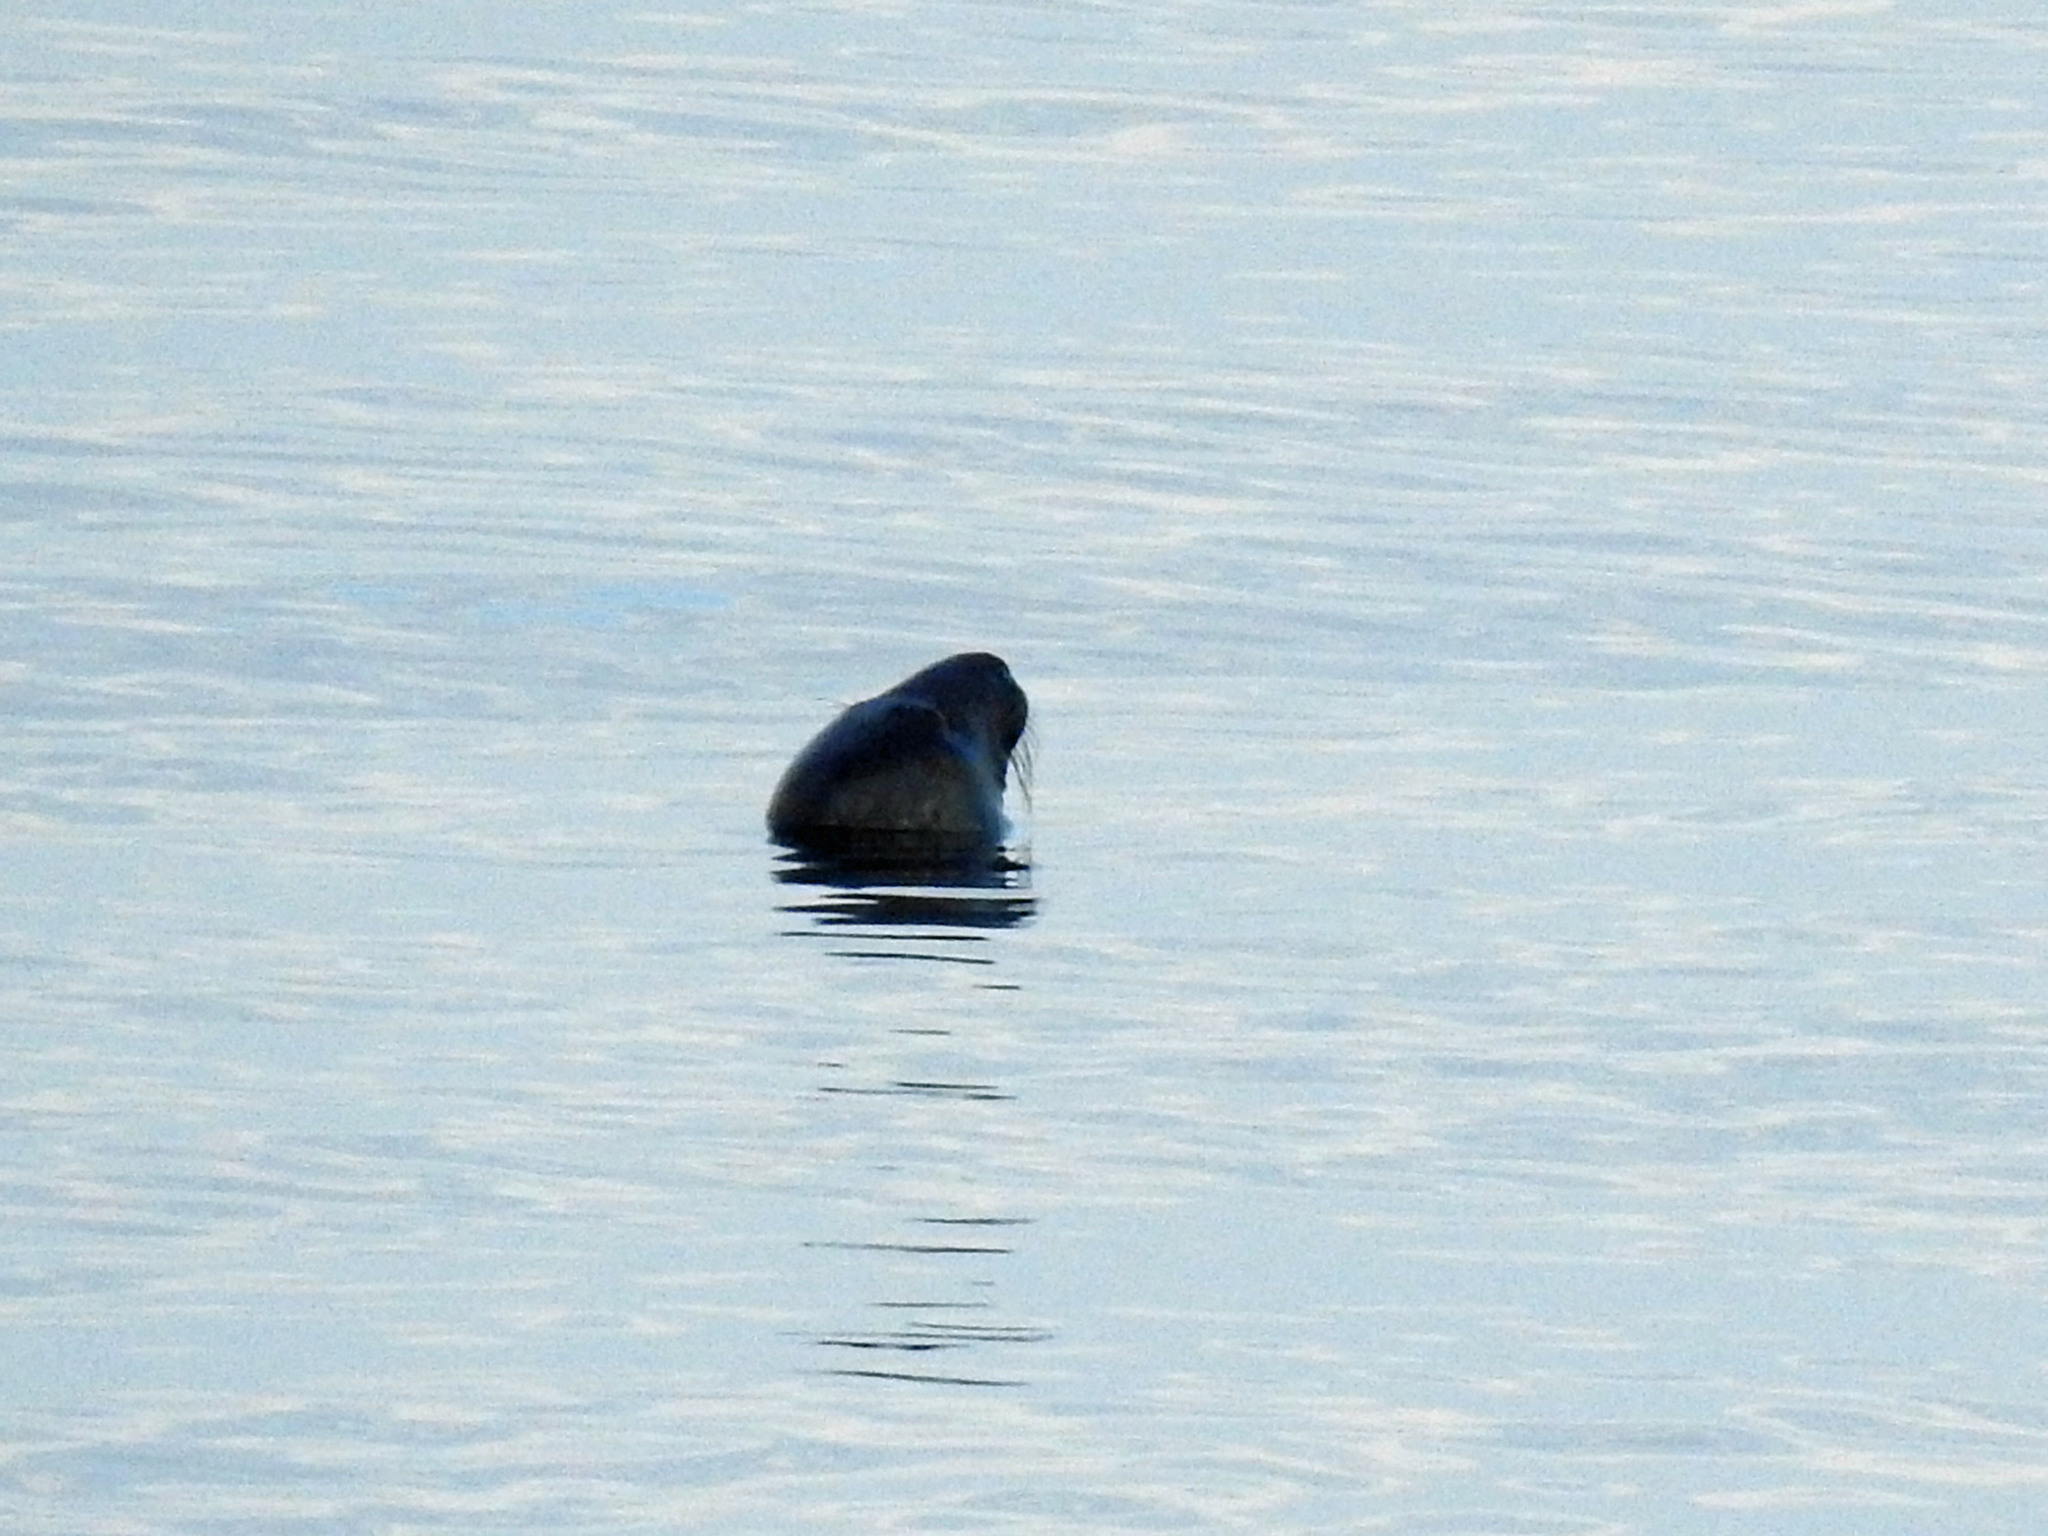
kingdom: Animalia
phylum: Chordata
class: Mammalia
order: Carnivora
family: Phocidae
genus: Halichoerus
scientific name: Halichoerus grypus
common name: Grey seal
